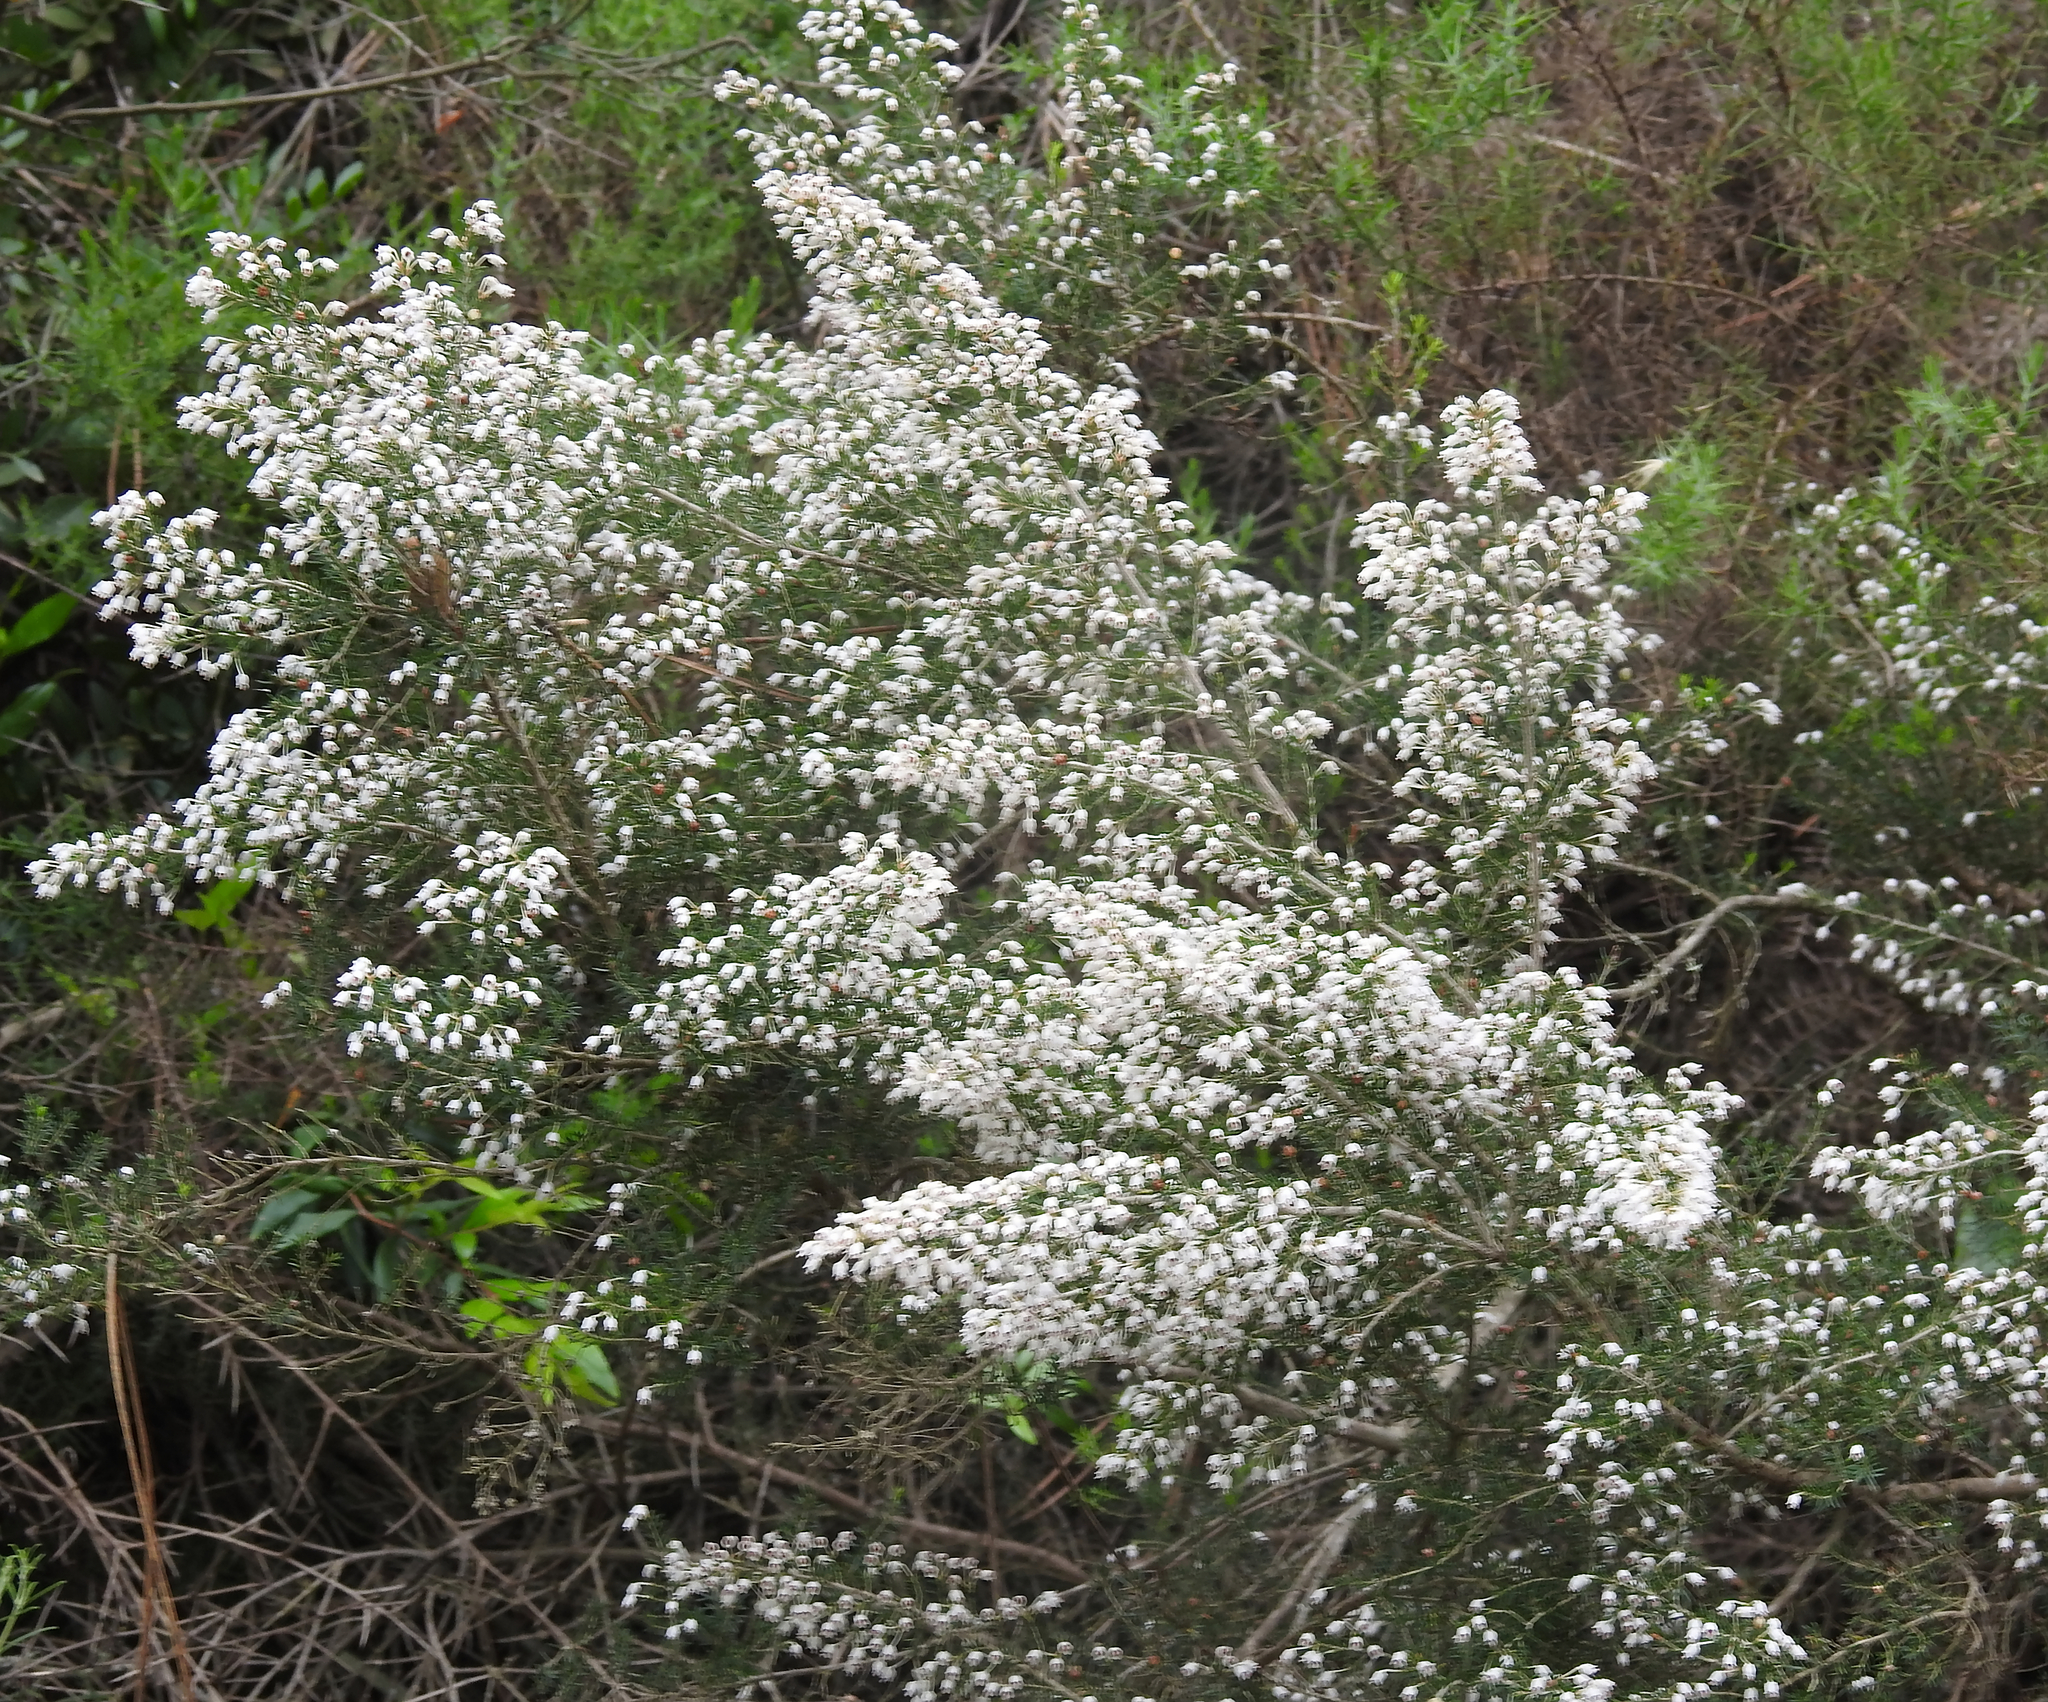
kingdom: Plantae
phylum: Tracheophyta
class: Magnoliopsida
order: Ericales
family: Ericaceae
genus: Erica
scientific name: Erica arborea
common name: Tree heath
